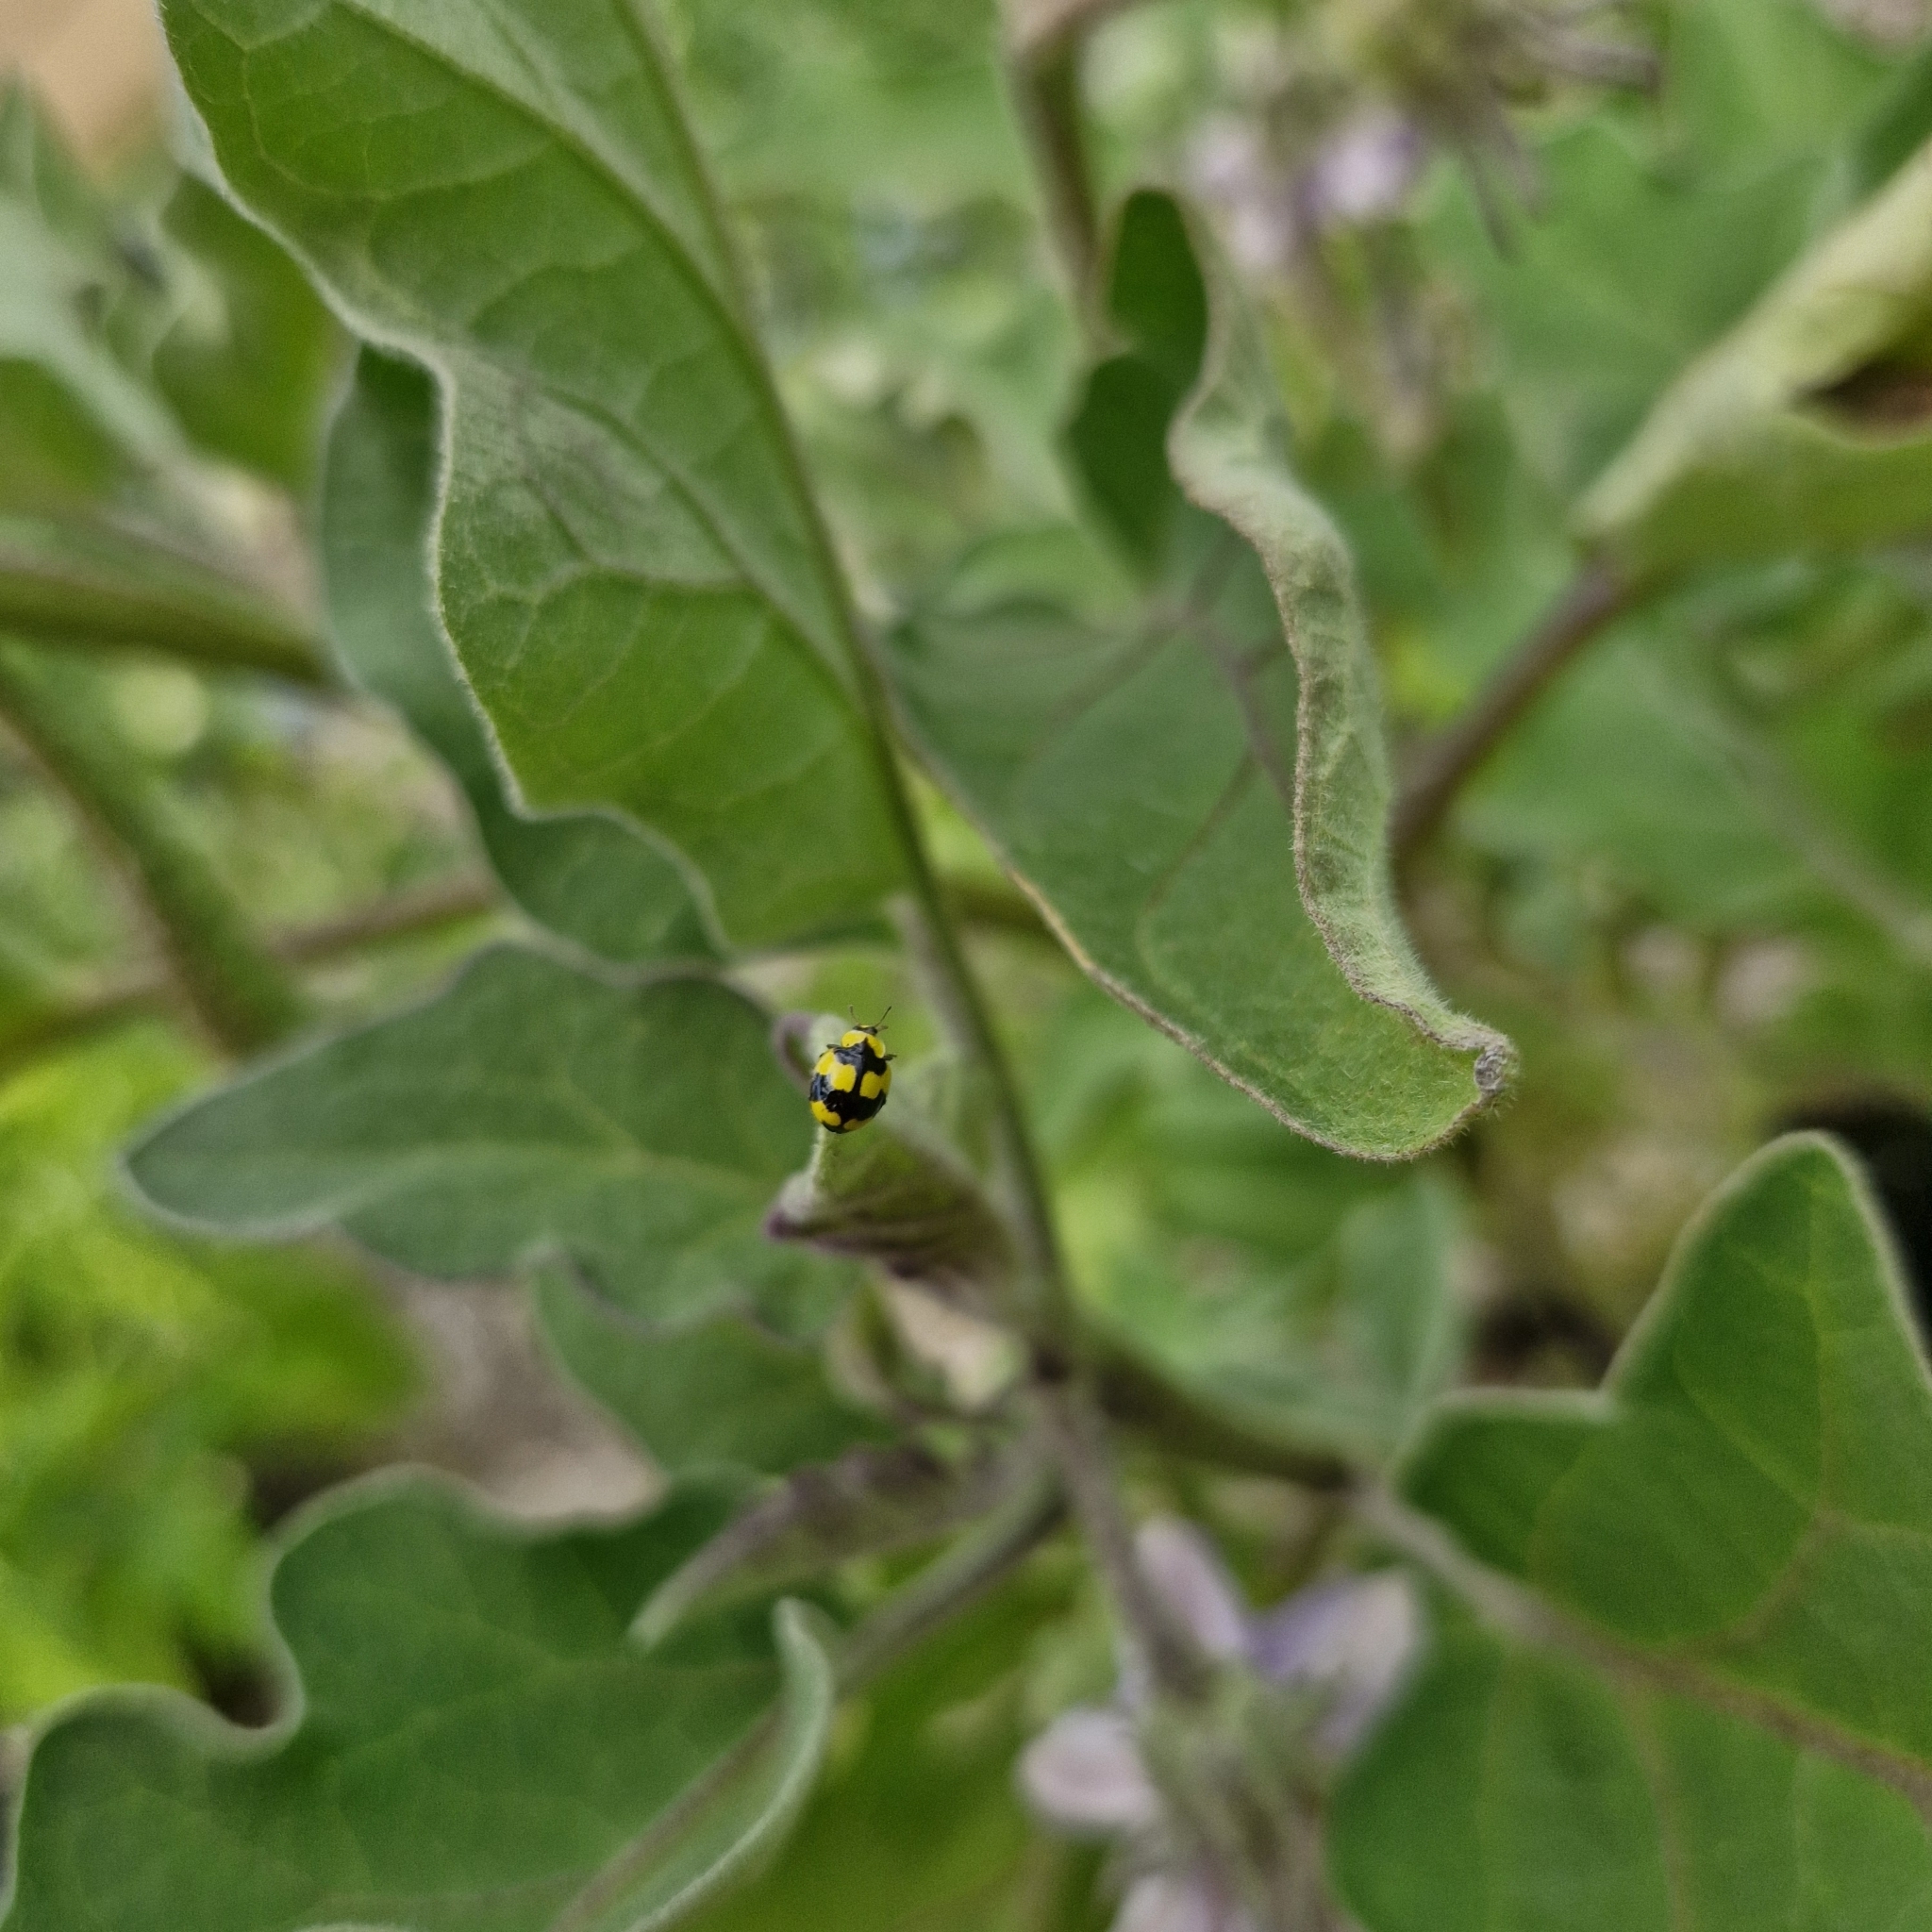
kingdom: Animalia
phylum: Arthropoda
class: Insecta
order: Coleoptera
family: Coccinellidae
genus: Illeis
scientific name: Illeis galbula
